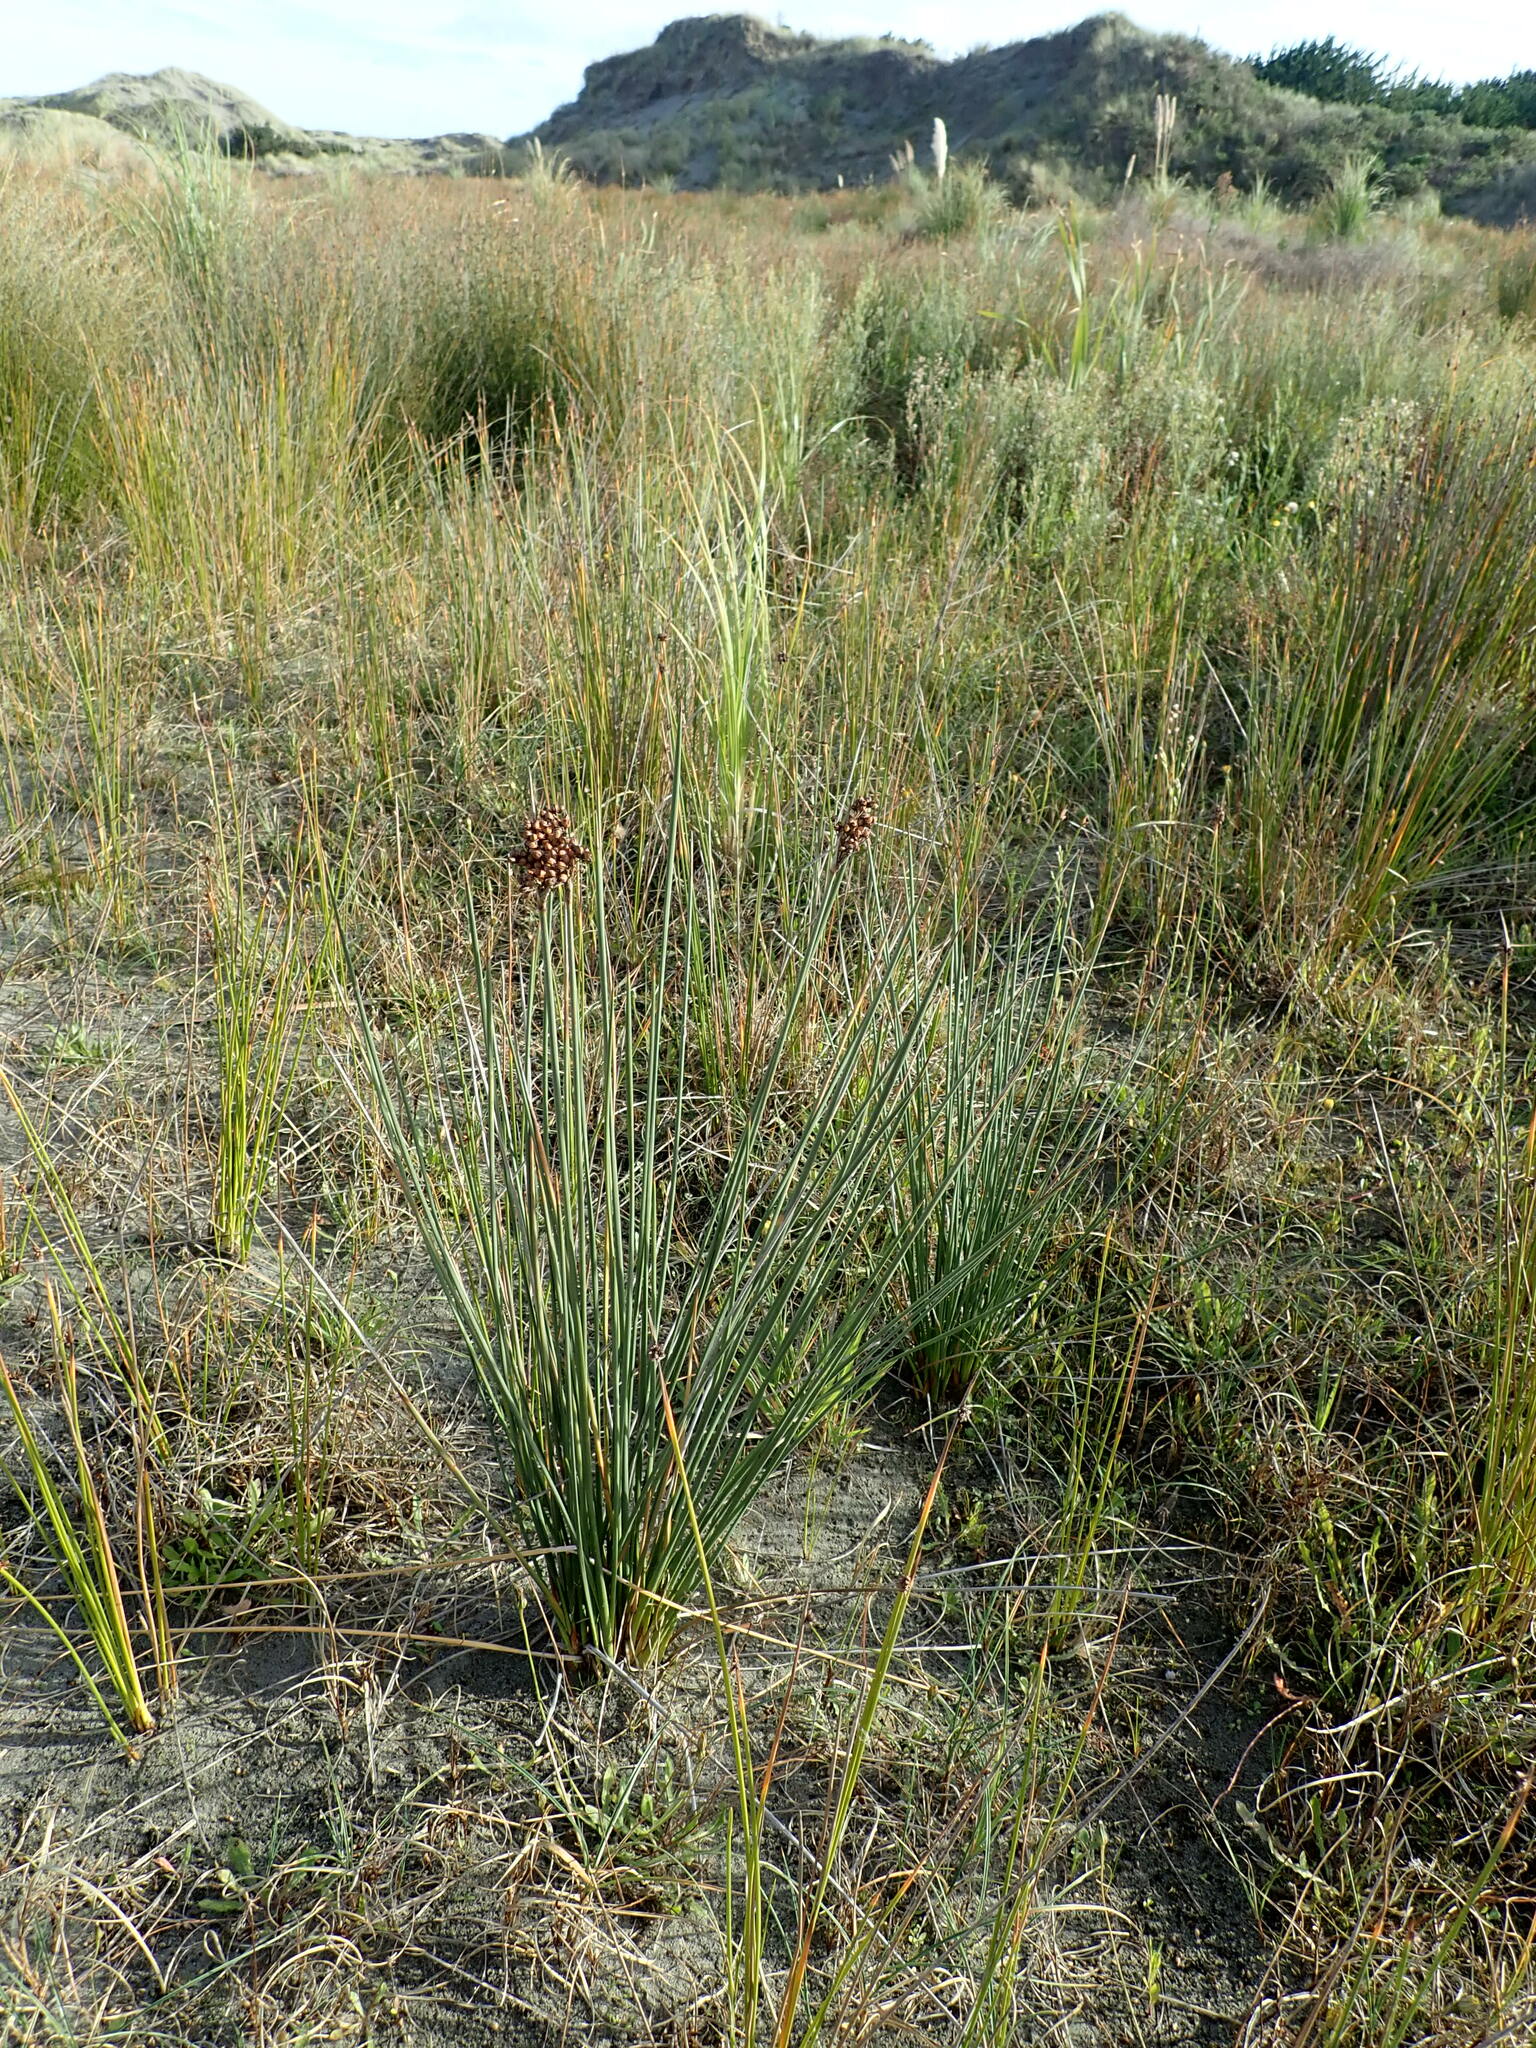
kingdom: Plantae
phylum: Tracheophyta
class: Liliopsida
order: Poales
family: Juncaceae
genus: Juncus
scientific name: Juncus acutus
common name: Sharp rush
